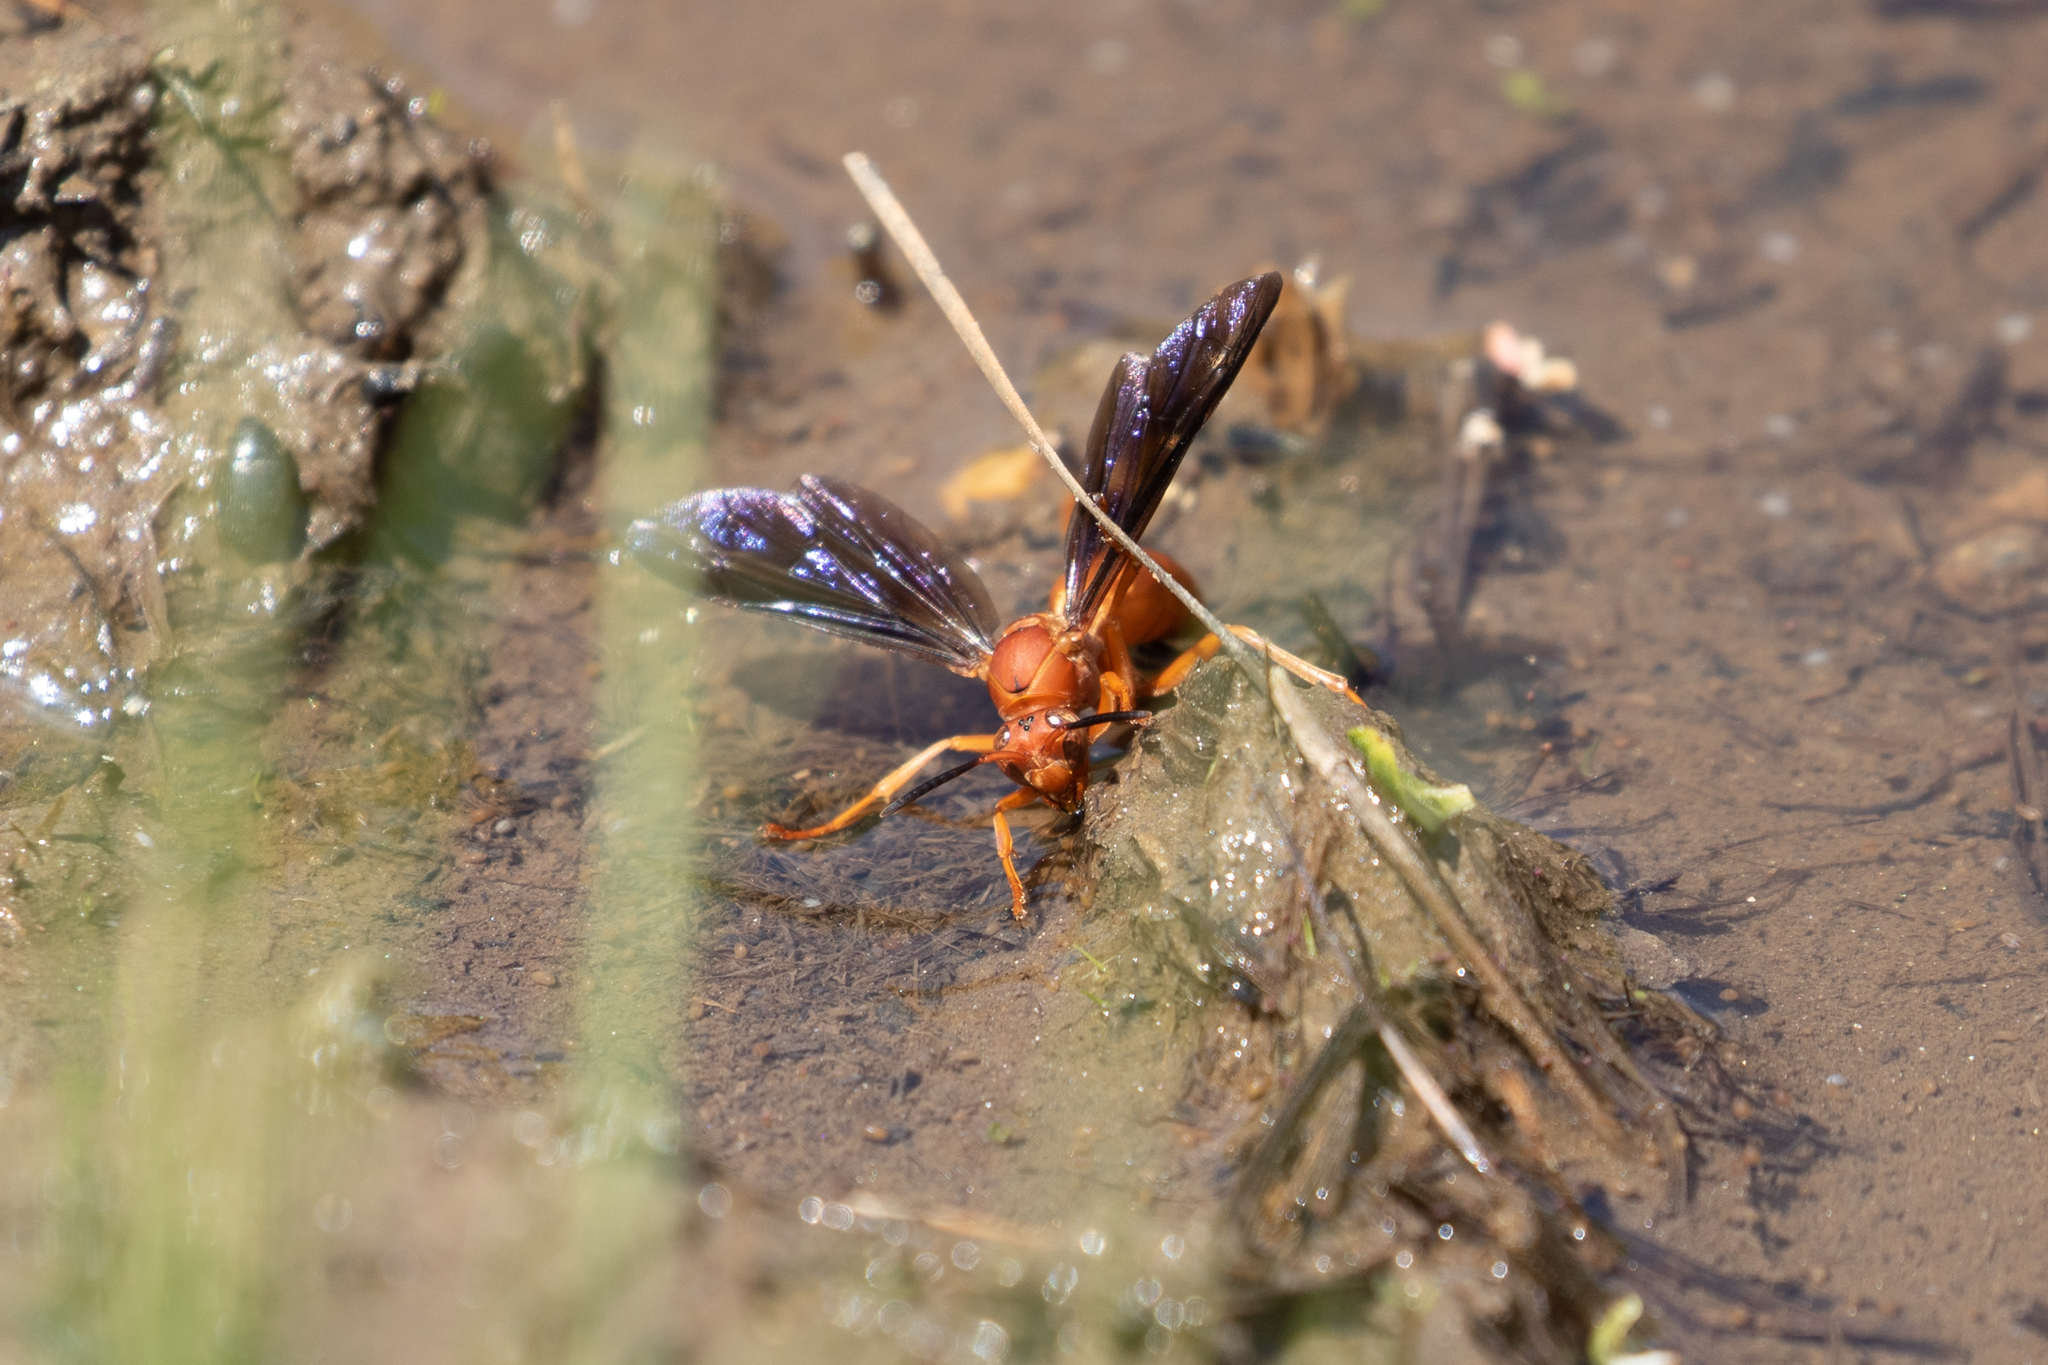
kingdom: Animalia
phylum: Arthropoda
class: Insecta
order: Hymenoptera
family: Vespidae
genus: Fuscopolistes
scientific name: Fuscopolistes
